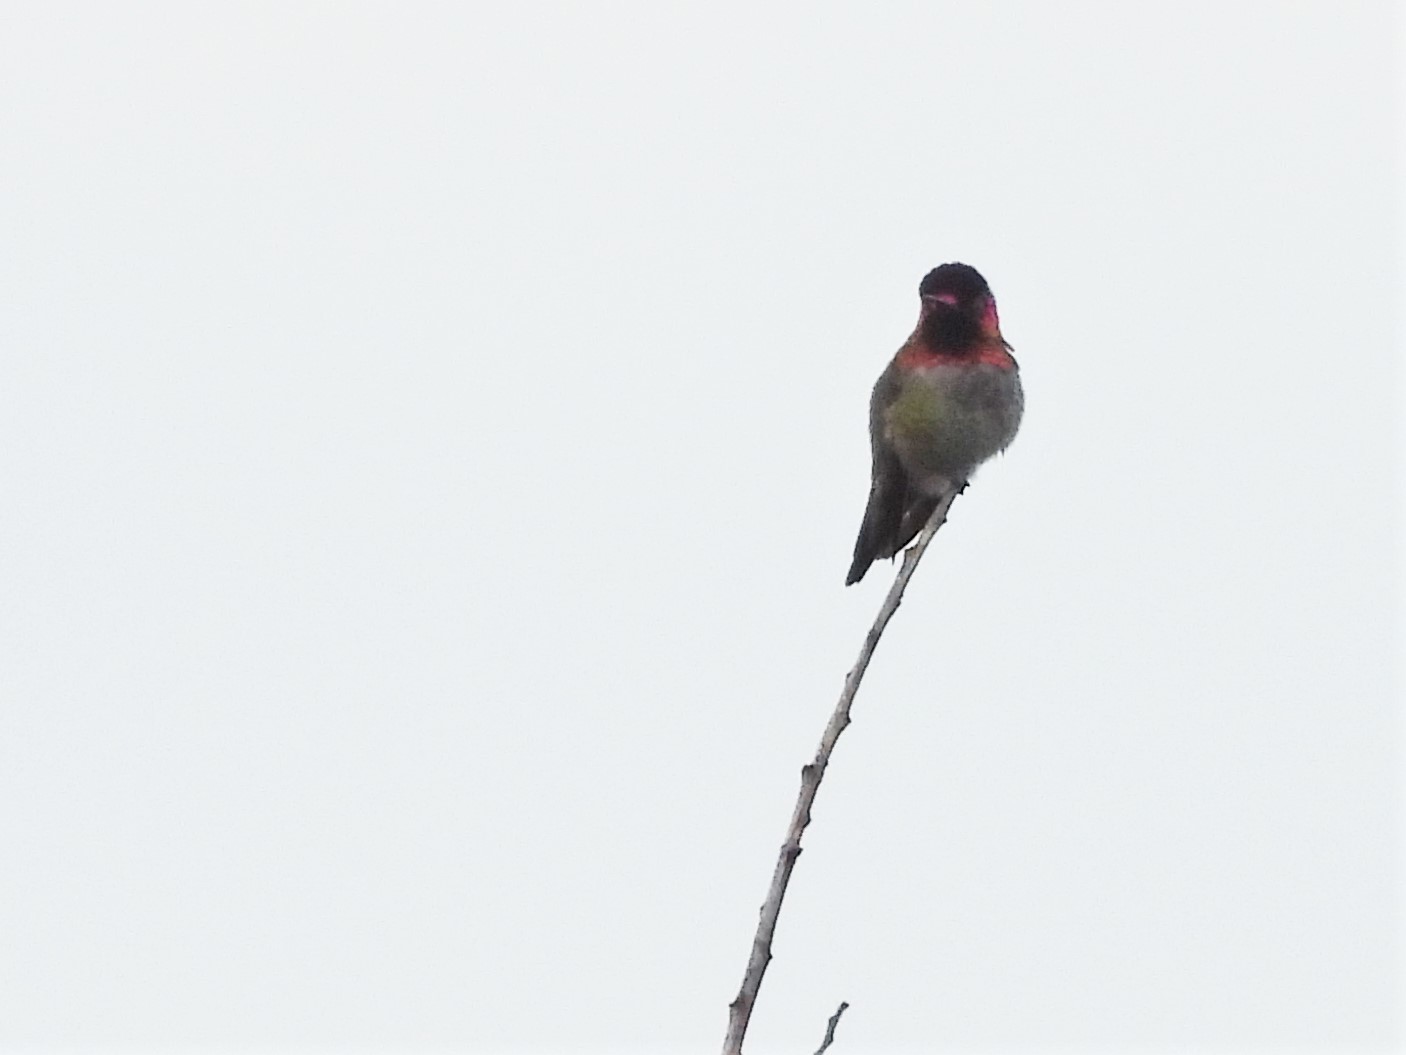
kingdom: Animalia
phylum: Chordata
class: Aves
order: Apodiformes
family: Trochilidae
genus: Calypte
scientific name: Calypte anna
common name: Anna's hummingbird
